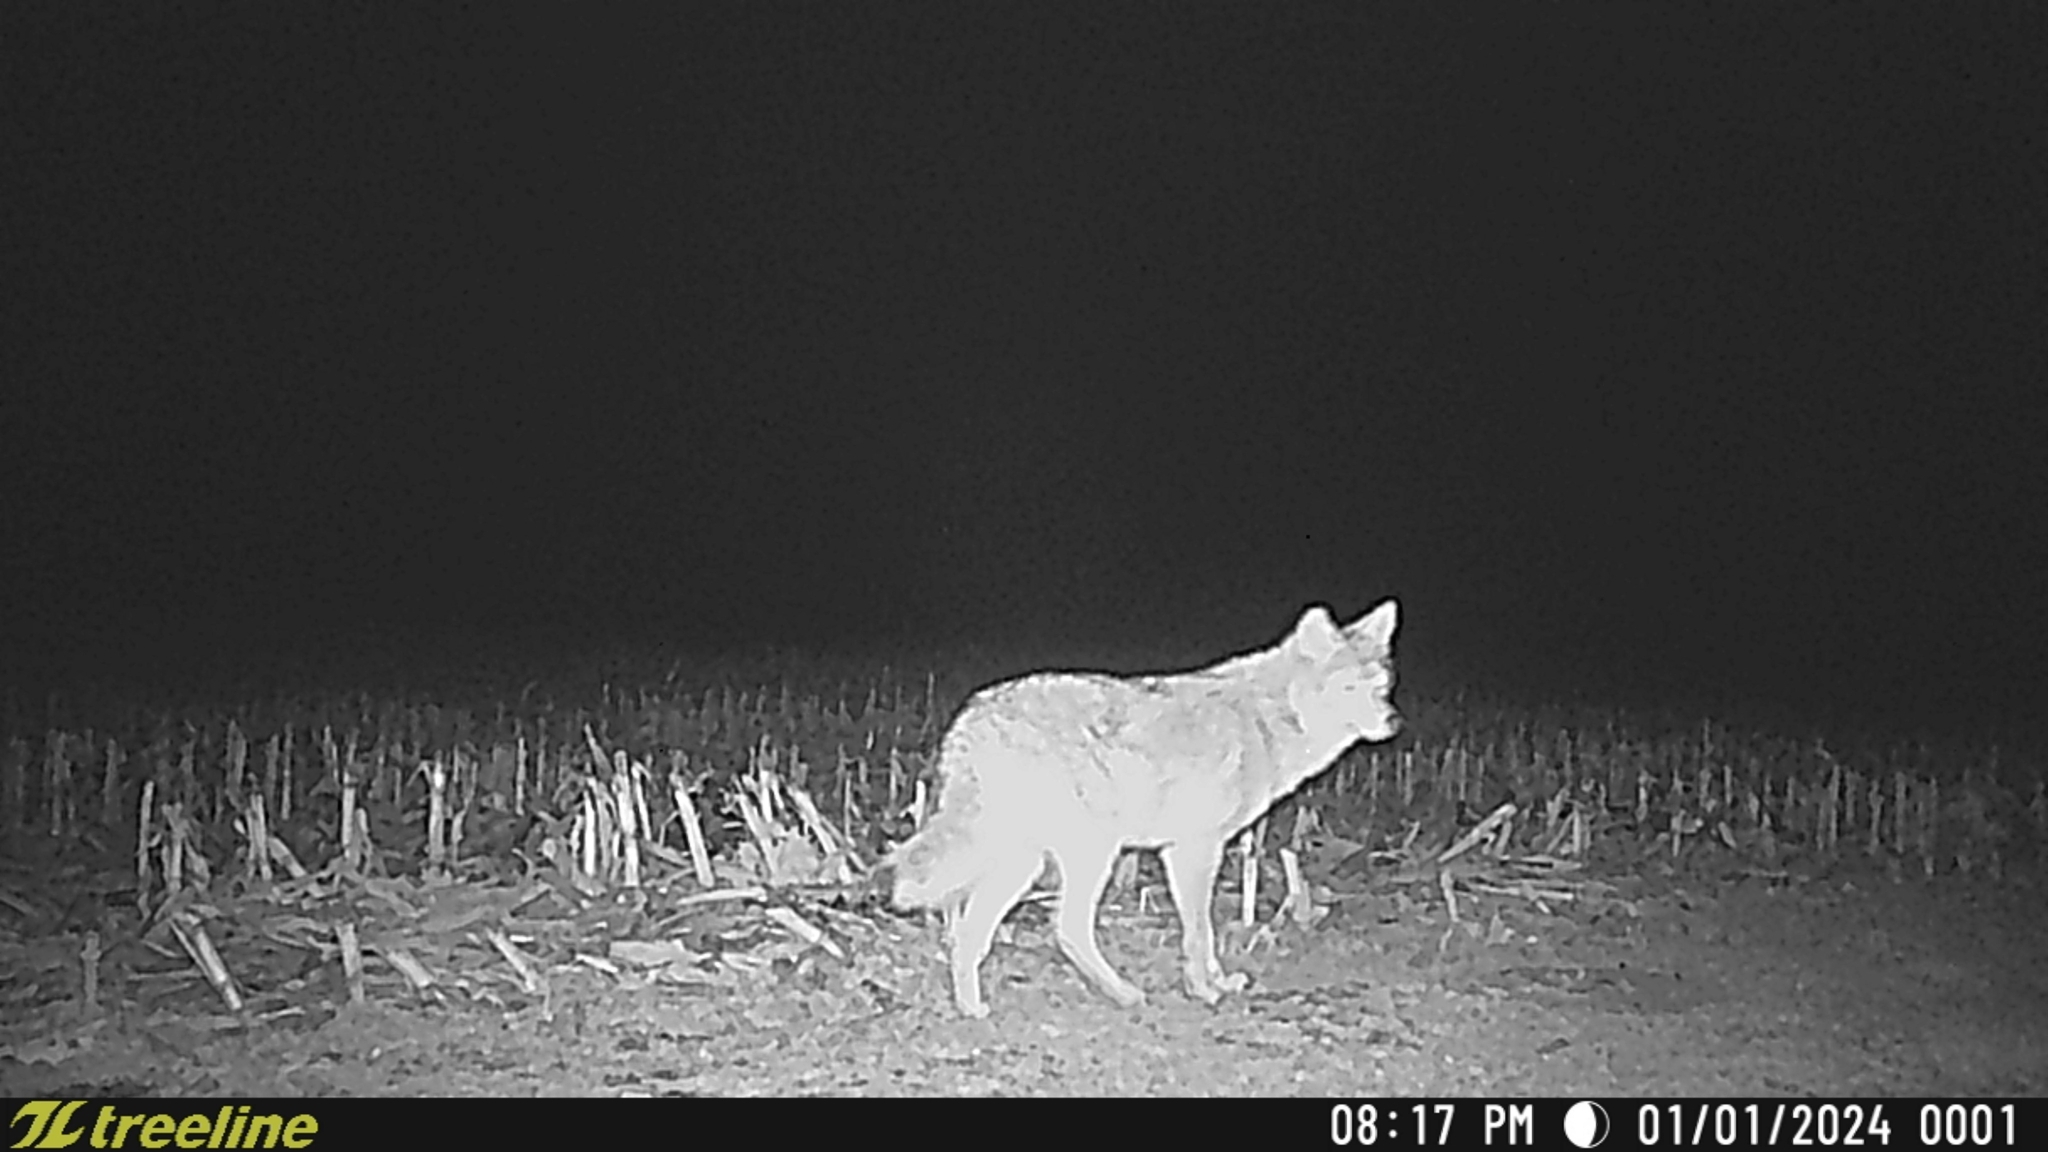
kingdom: Animalia
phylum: Chordata
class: Mammalia
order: Carnivora
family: Canidae
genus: Canis
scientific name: Canis latrans
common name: Coyote
